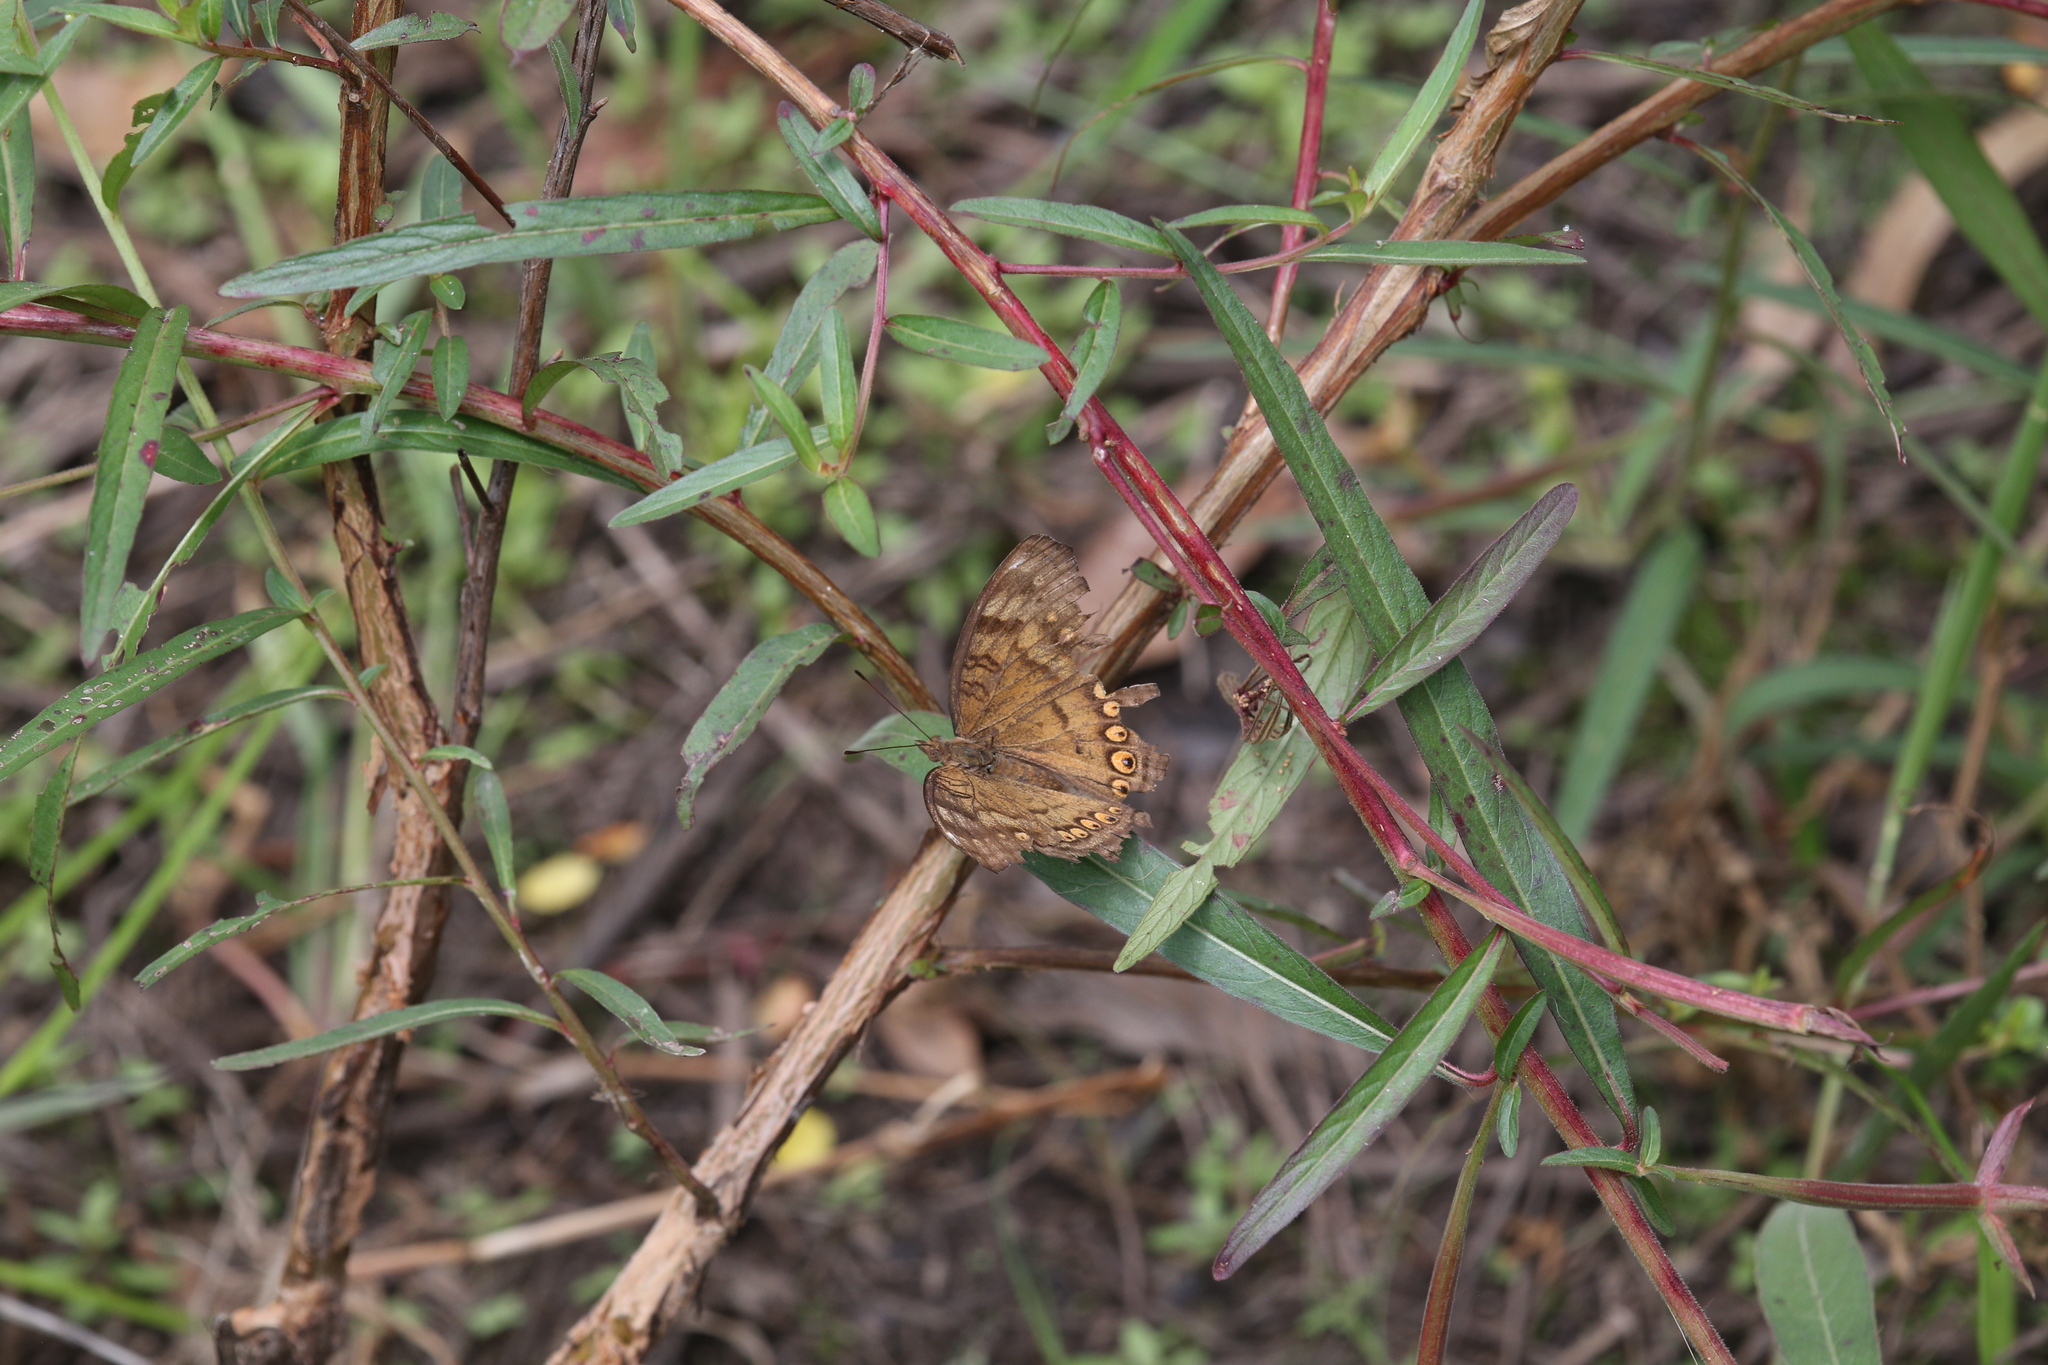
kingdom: Animalia
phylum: Arthropoda
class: Insecta
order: Lepidoptera
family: Nymphalidae
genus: Junonia
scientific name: Junonia hedonia
